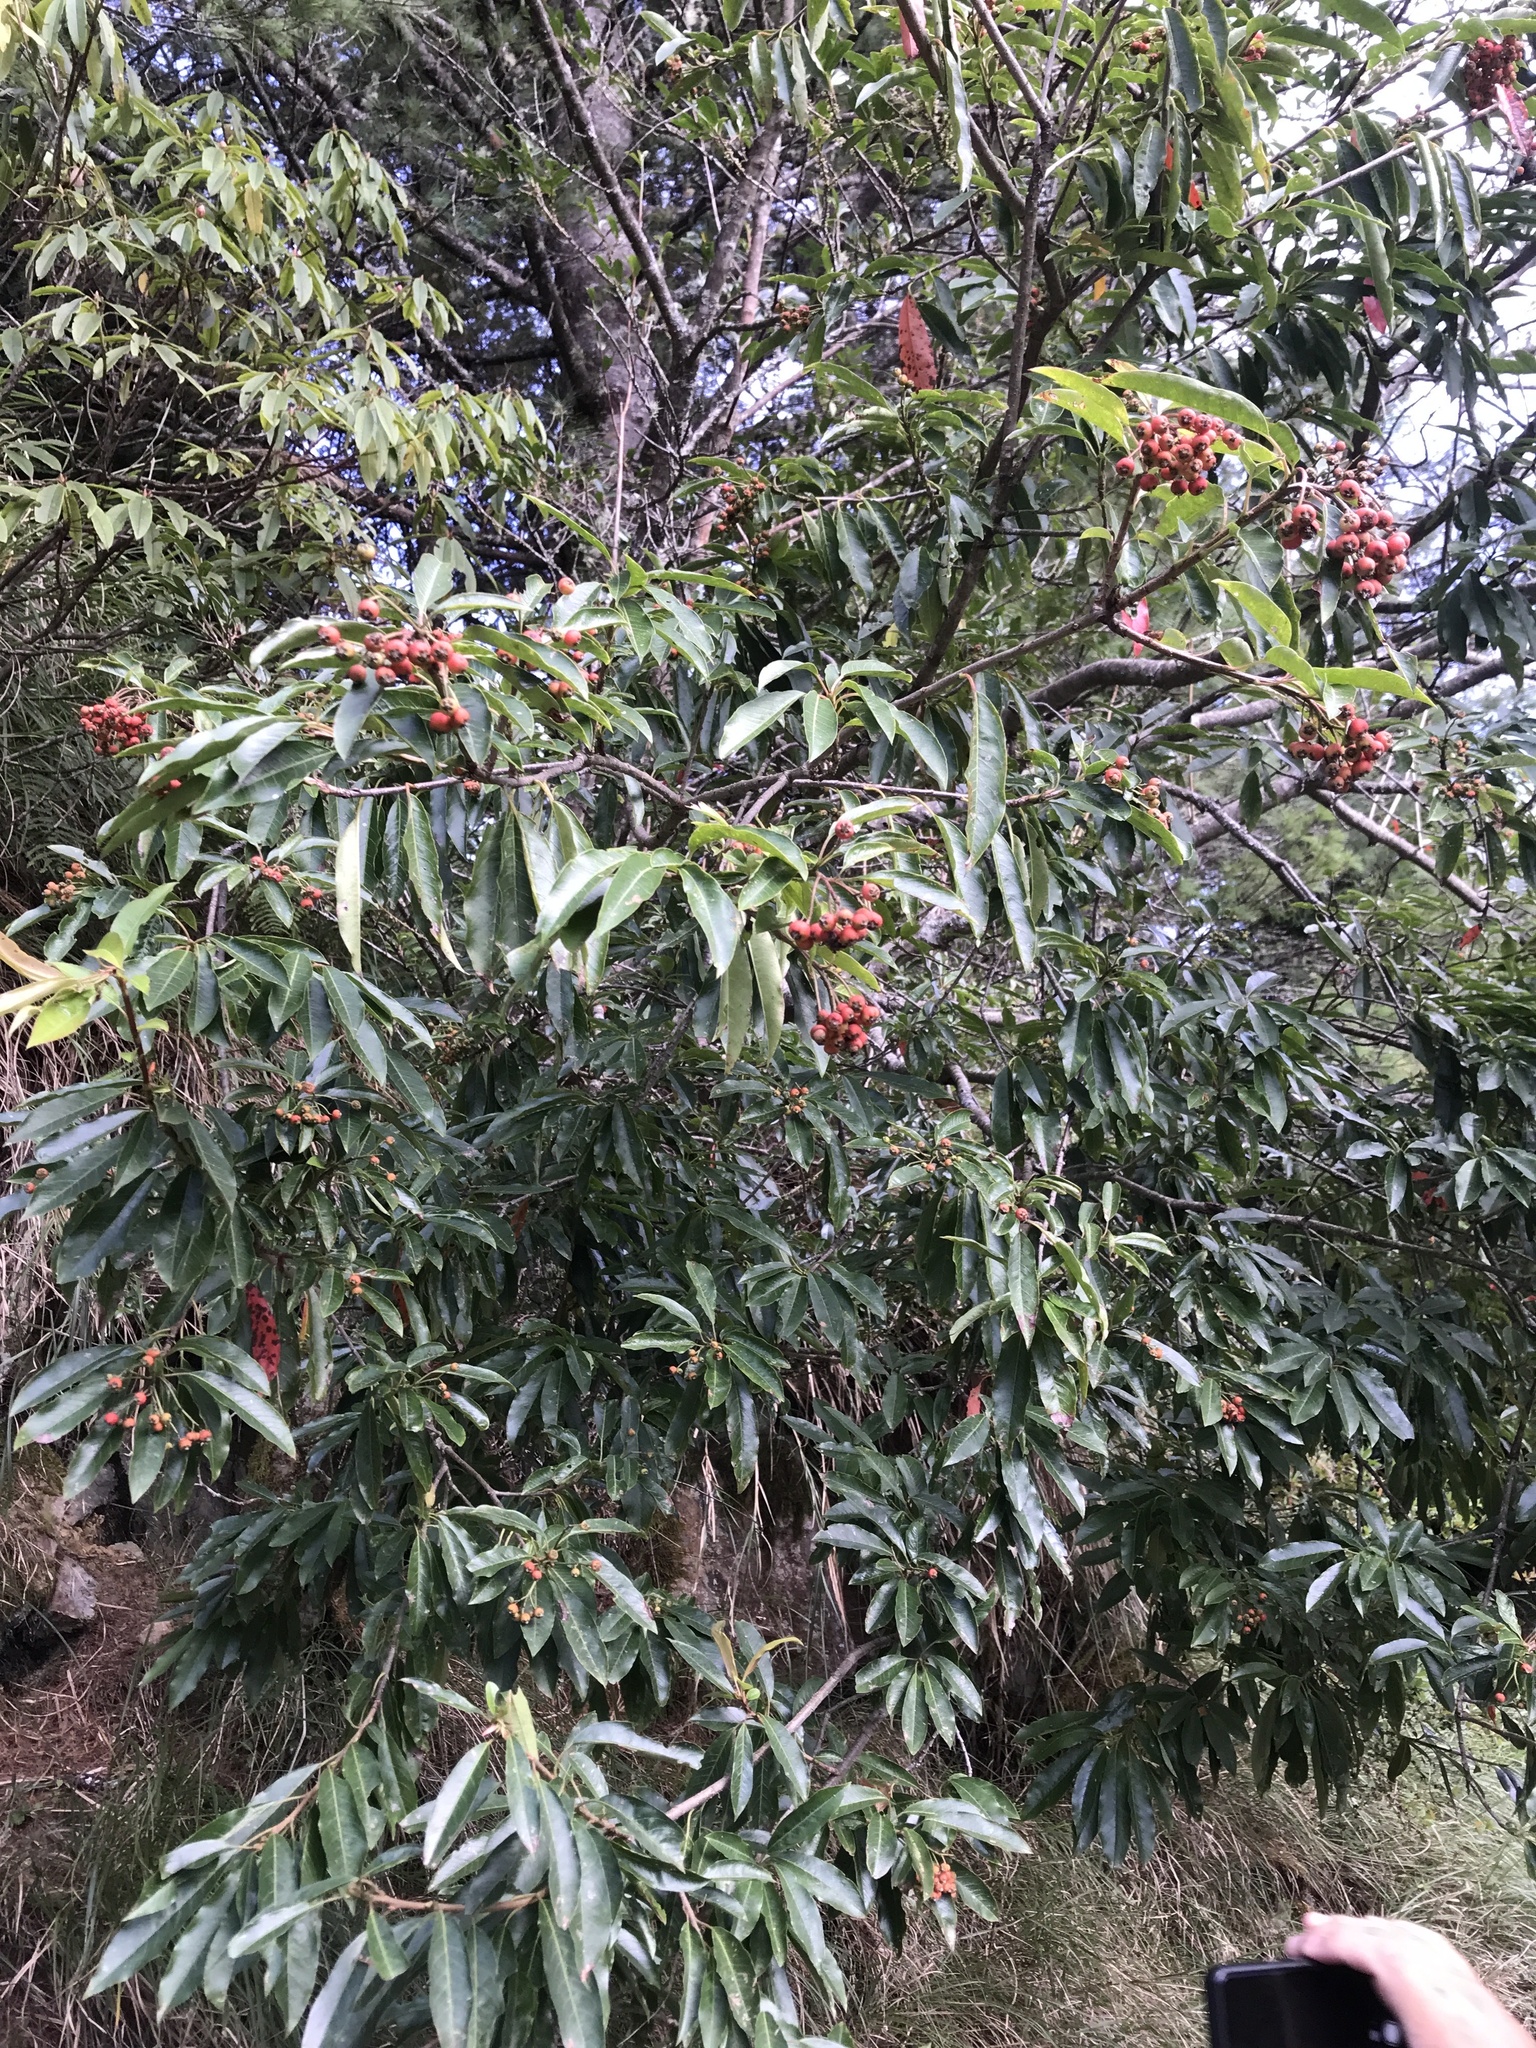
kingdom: Plantae
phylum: Tracheophyta
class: Magnoliopsida
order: Rosales
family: Rosaceae
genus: Stranvaesia
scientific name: Stranvaesia davidiana
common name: Chinese photinia
